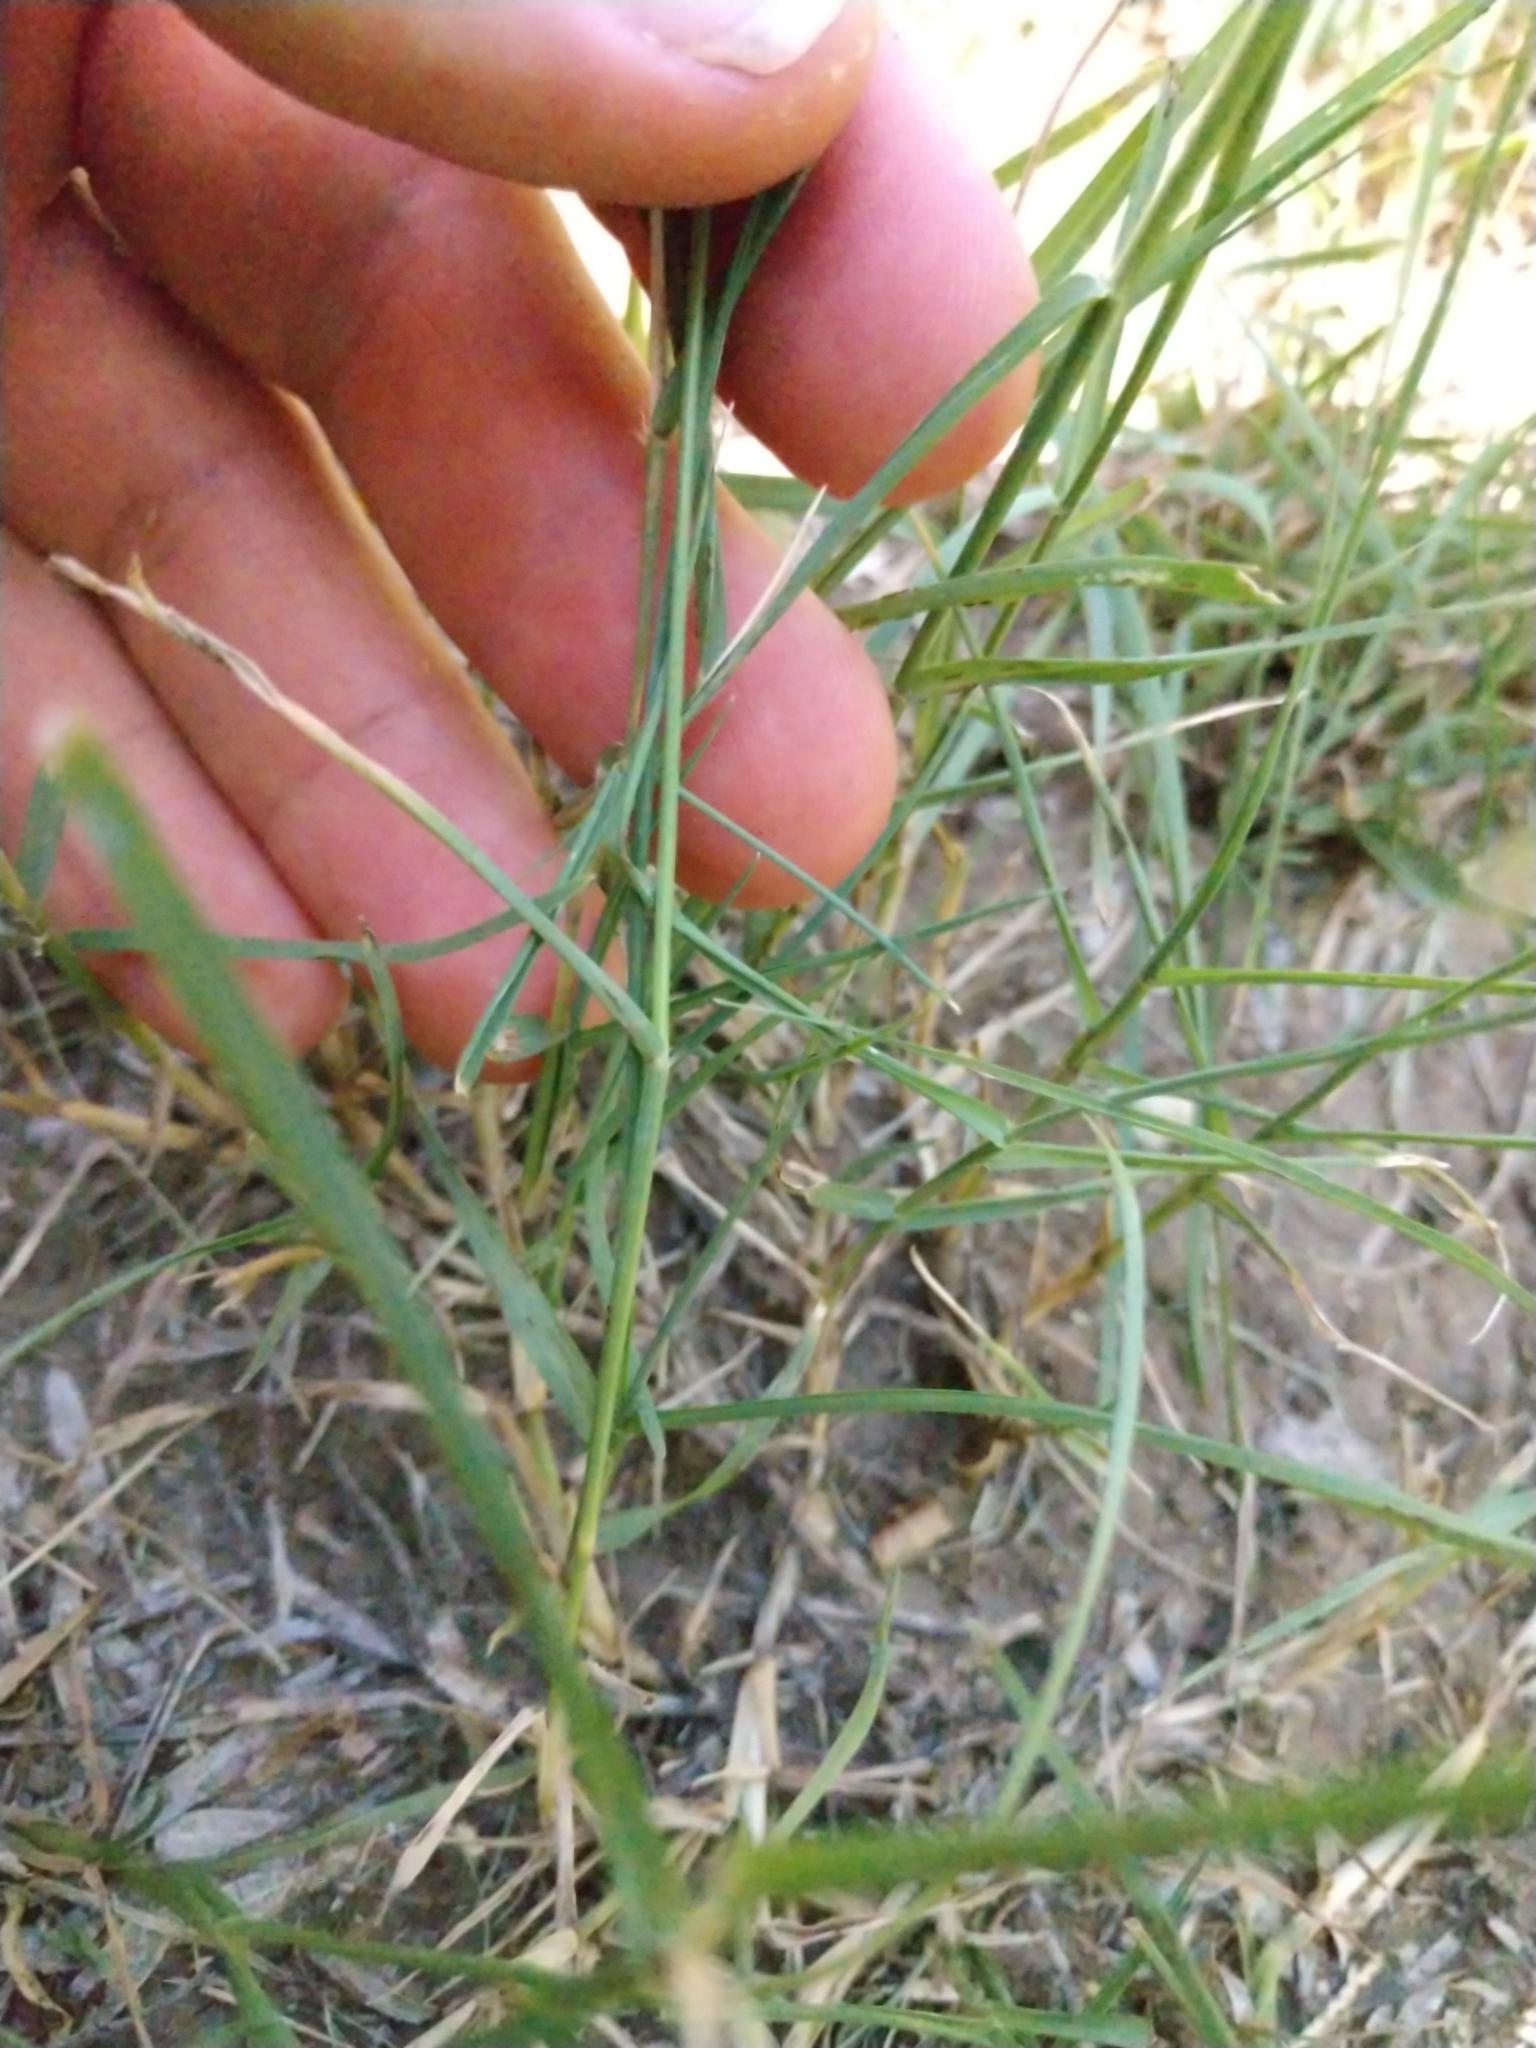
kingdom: Plantae
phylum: Tracheophyta
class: Liliopsida
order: Poales
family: Poaceae
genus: Cynodon
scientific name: Cynodon dactylon
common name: Bermuda grass
